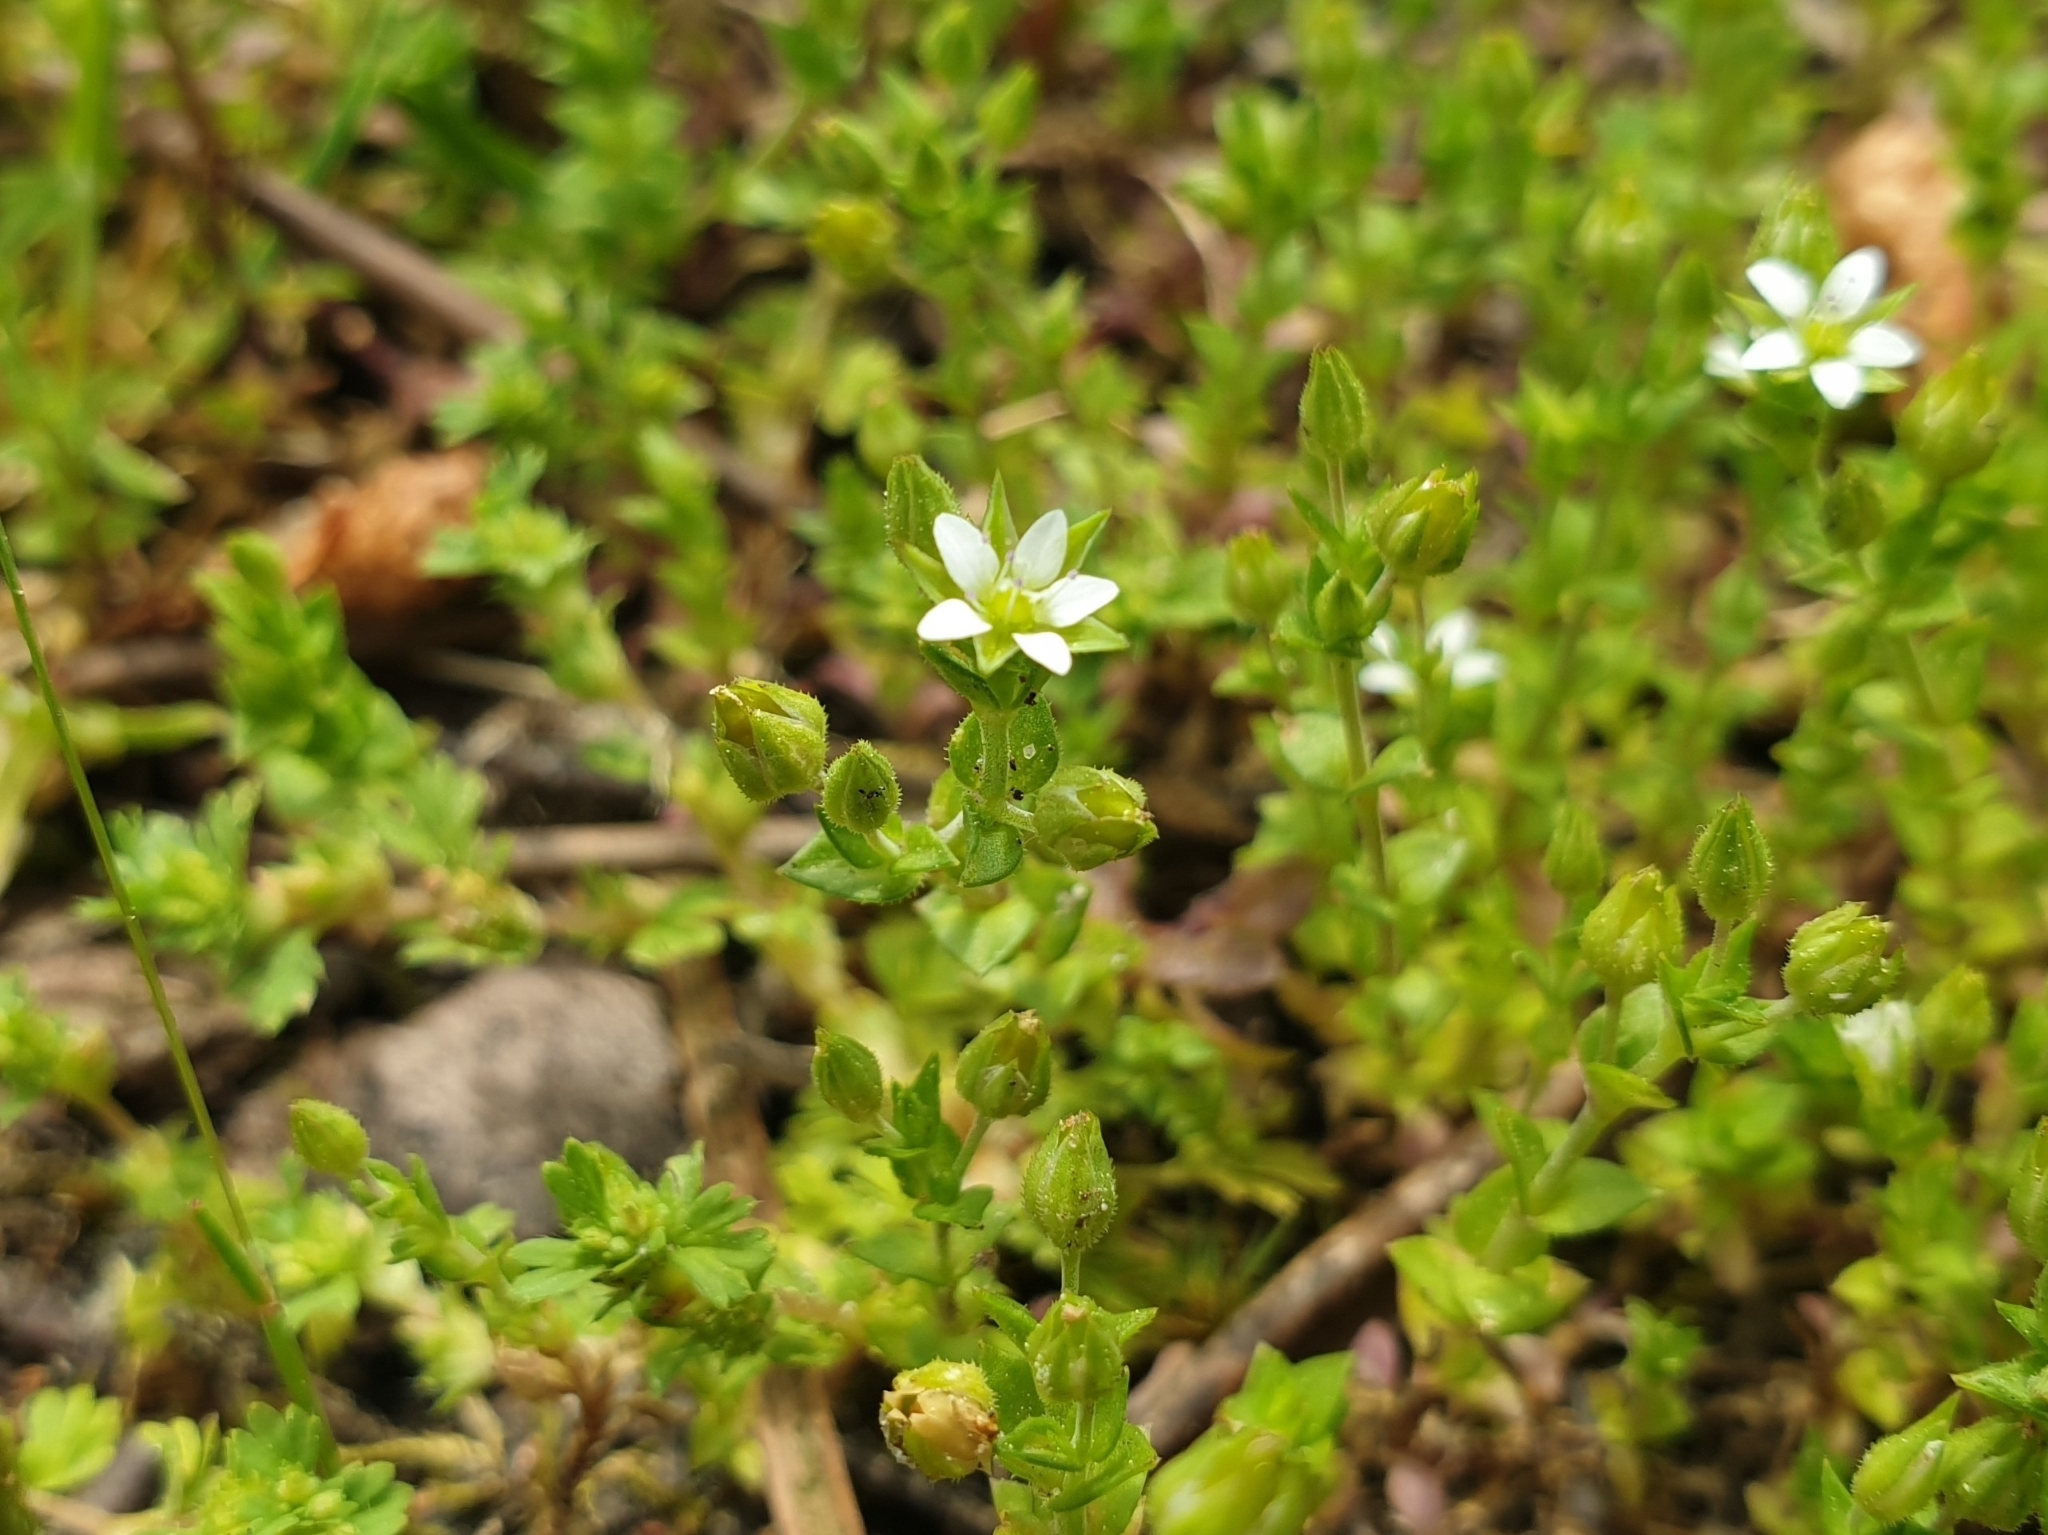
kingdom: Plantae
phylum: Tracheophyta
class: Magnoliopsida
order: Caryophyllales
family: Caryophyllaceae
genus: Arenaria
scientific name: Arenaria serpyllifolia
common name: Thyme-leaved sandwort
